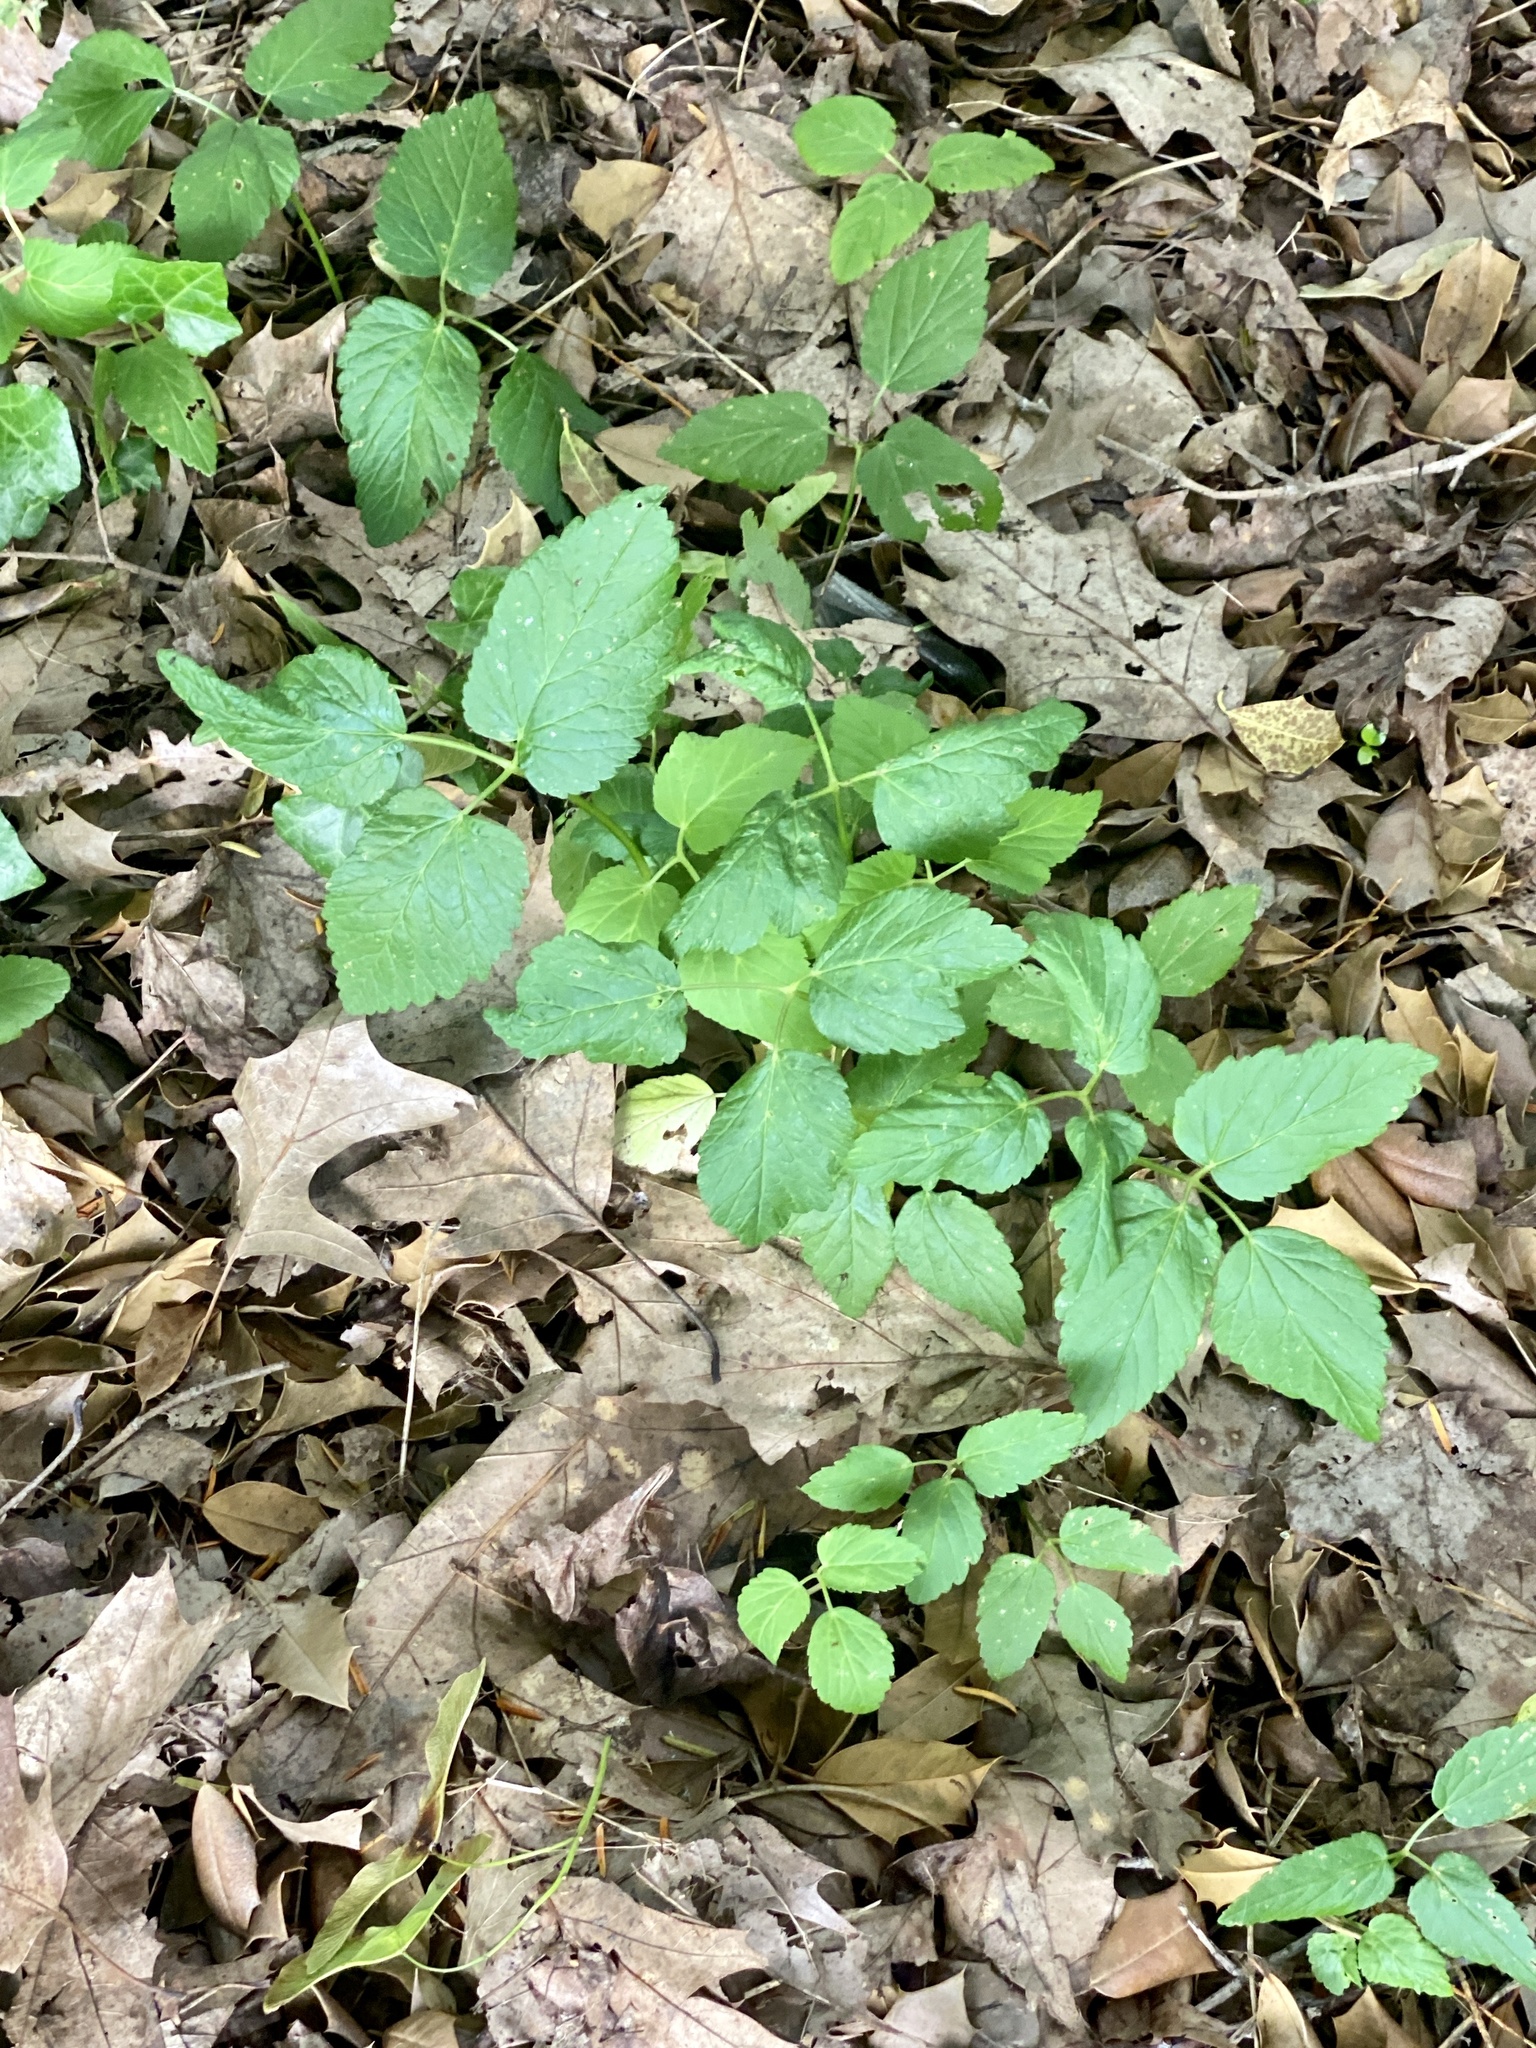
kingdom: Plantae
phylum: Tracheophyta
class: Magnoliopsida
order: Apiales
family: Apiaceae
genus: Aegopodium
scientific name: Aegopodium podagraria
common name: Ground-elder
